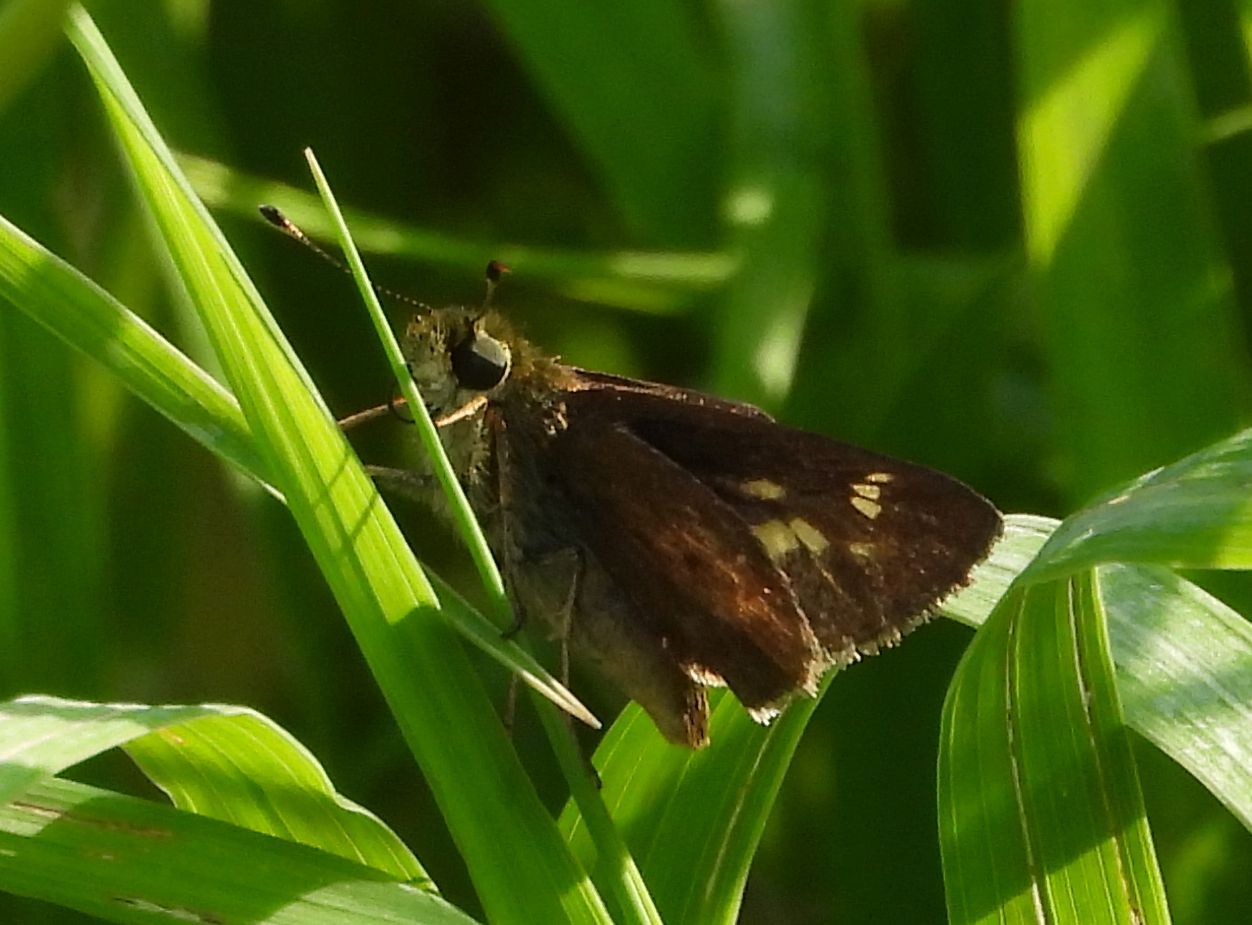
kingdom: Animalia
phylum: Arthropoda
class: Insecta
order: Lepidoptera
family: Hesperiidae
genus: Vernia
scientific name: Vernia verna
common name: Little glassywing
